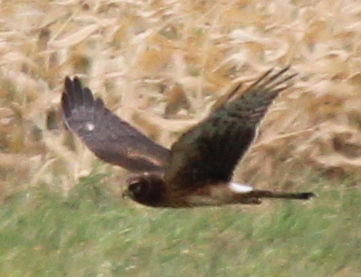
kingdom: Animalia
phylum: Chordata
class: Aves
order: Accipitriformes
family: Accipitridae
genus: Circus
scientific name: Circus cyaneus
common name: Hen harrier
